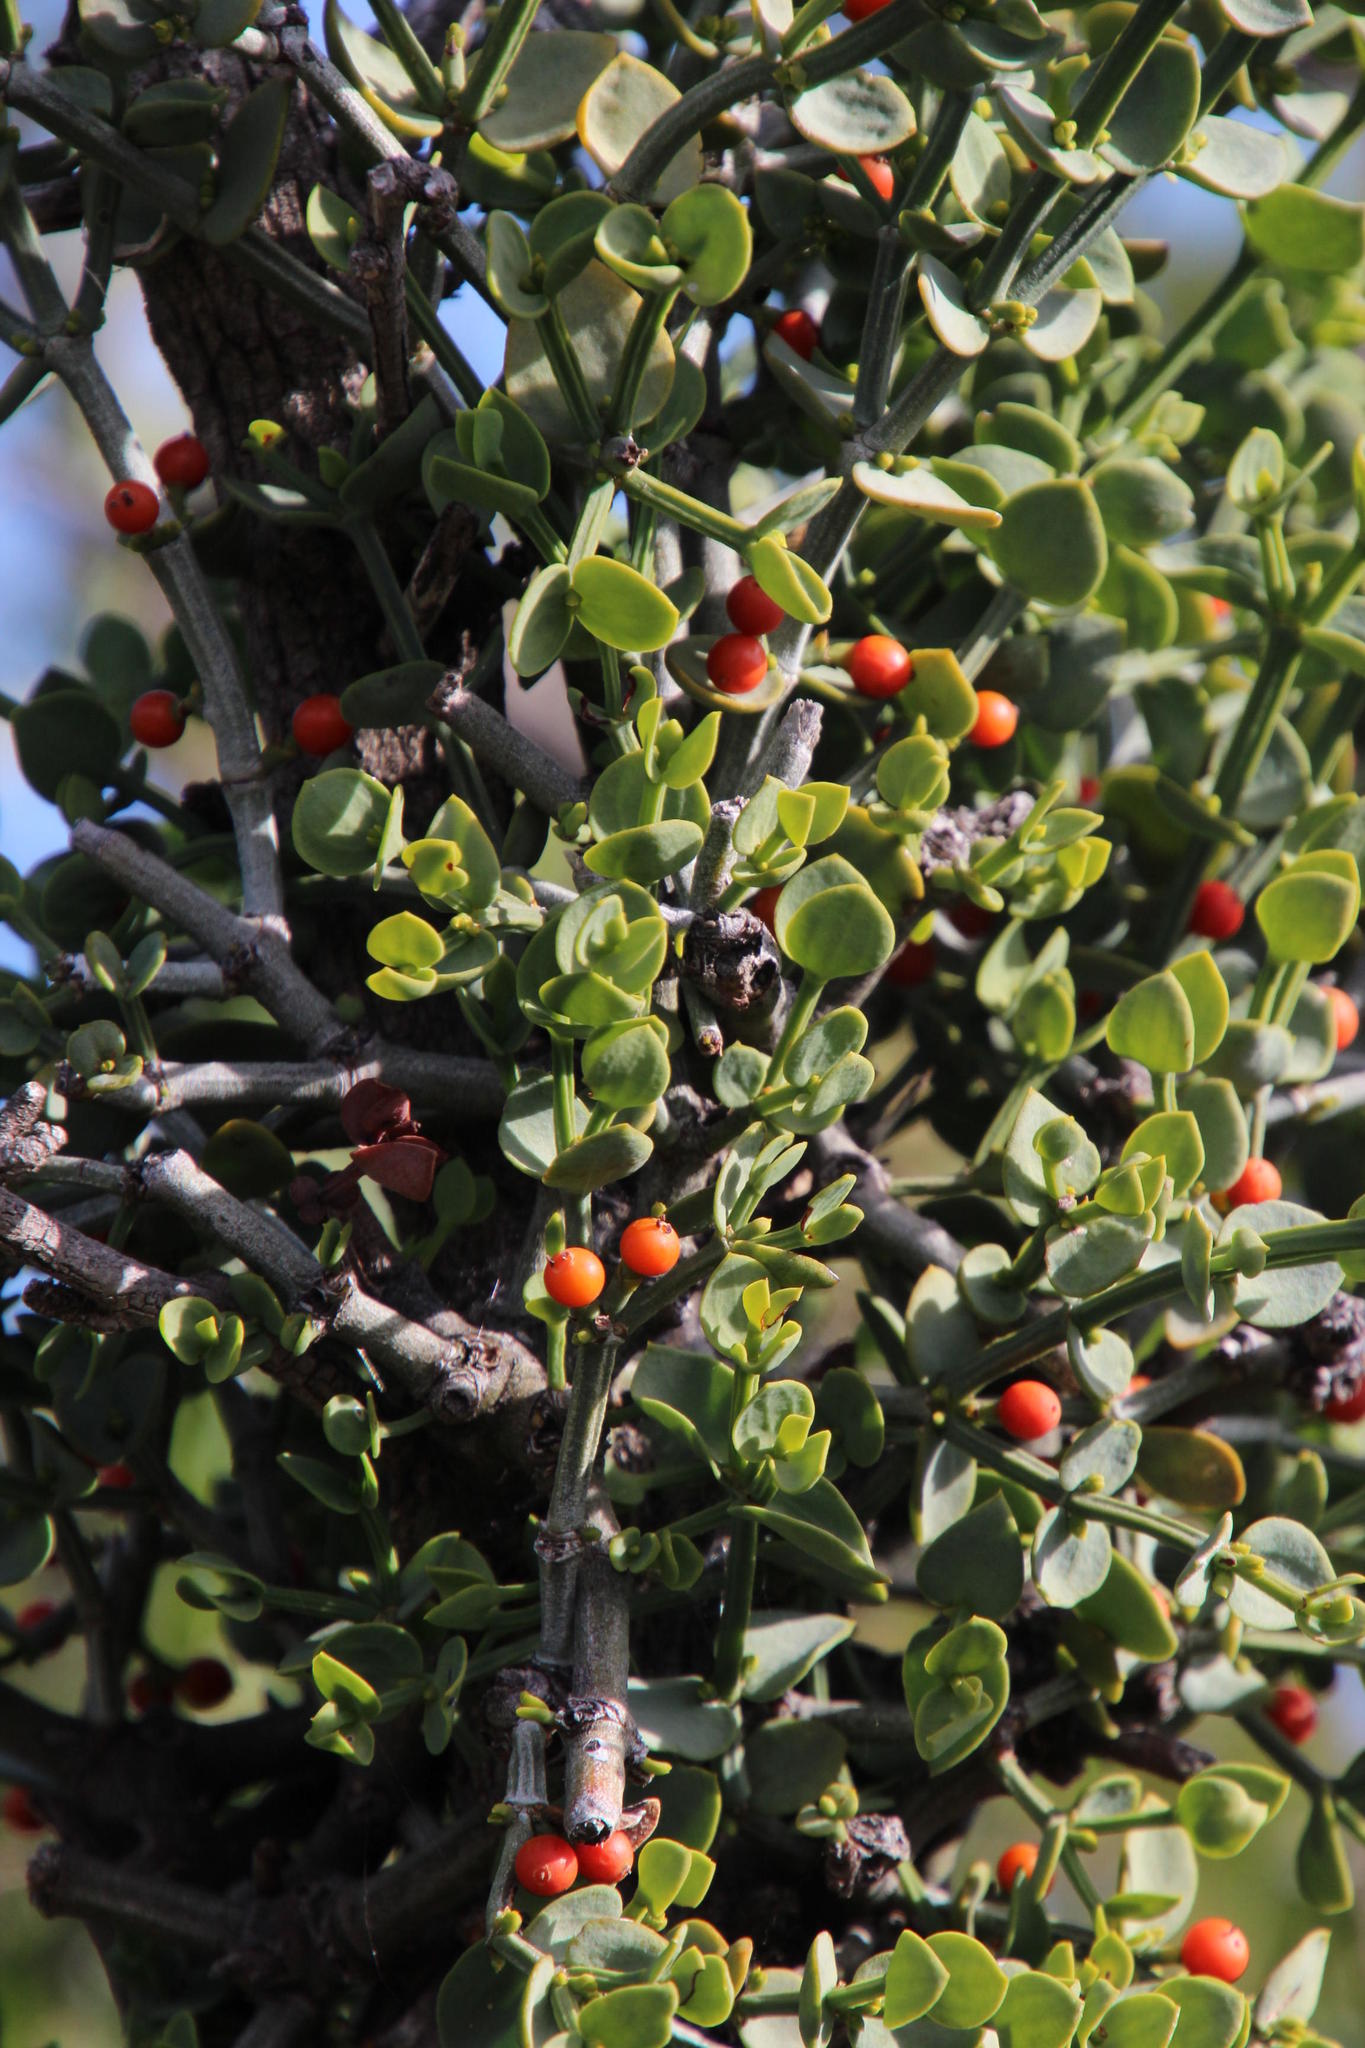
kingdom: Plantae
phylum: Tracheophyta
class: Magnoliopsida
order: Santalales
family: Viscaceae
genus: Viscum
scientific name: Viscum rotundifolium
